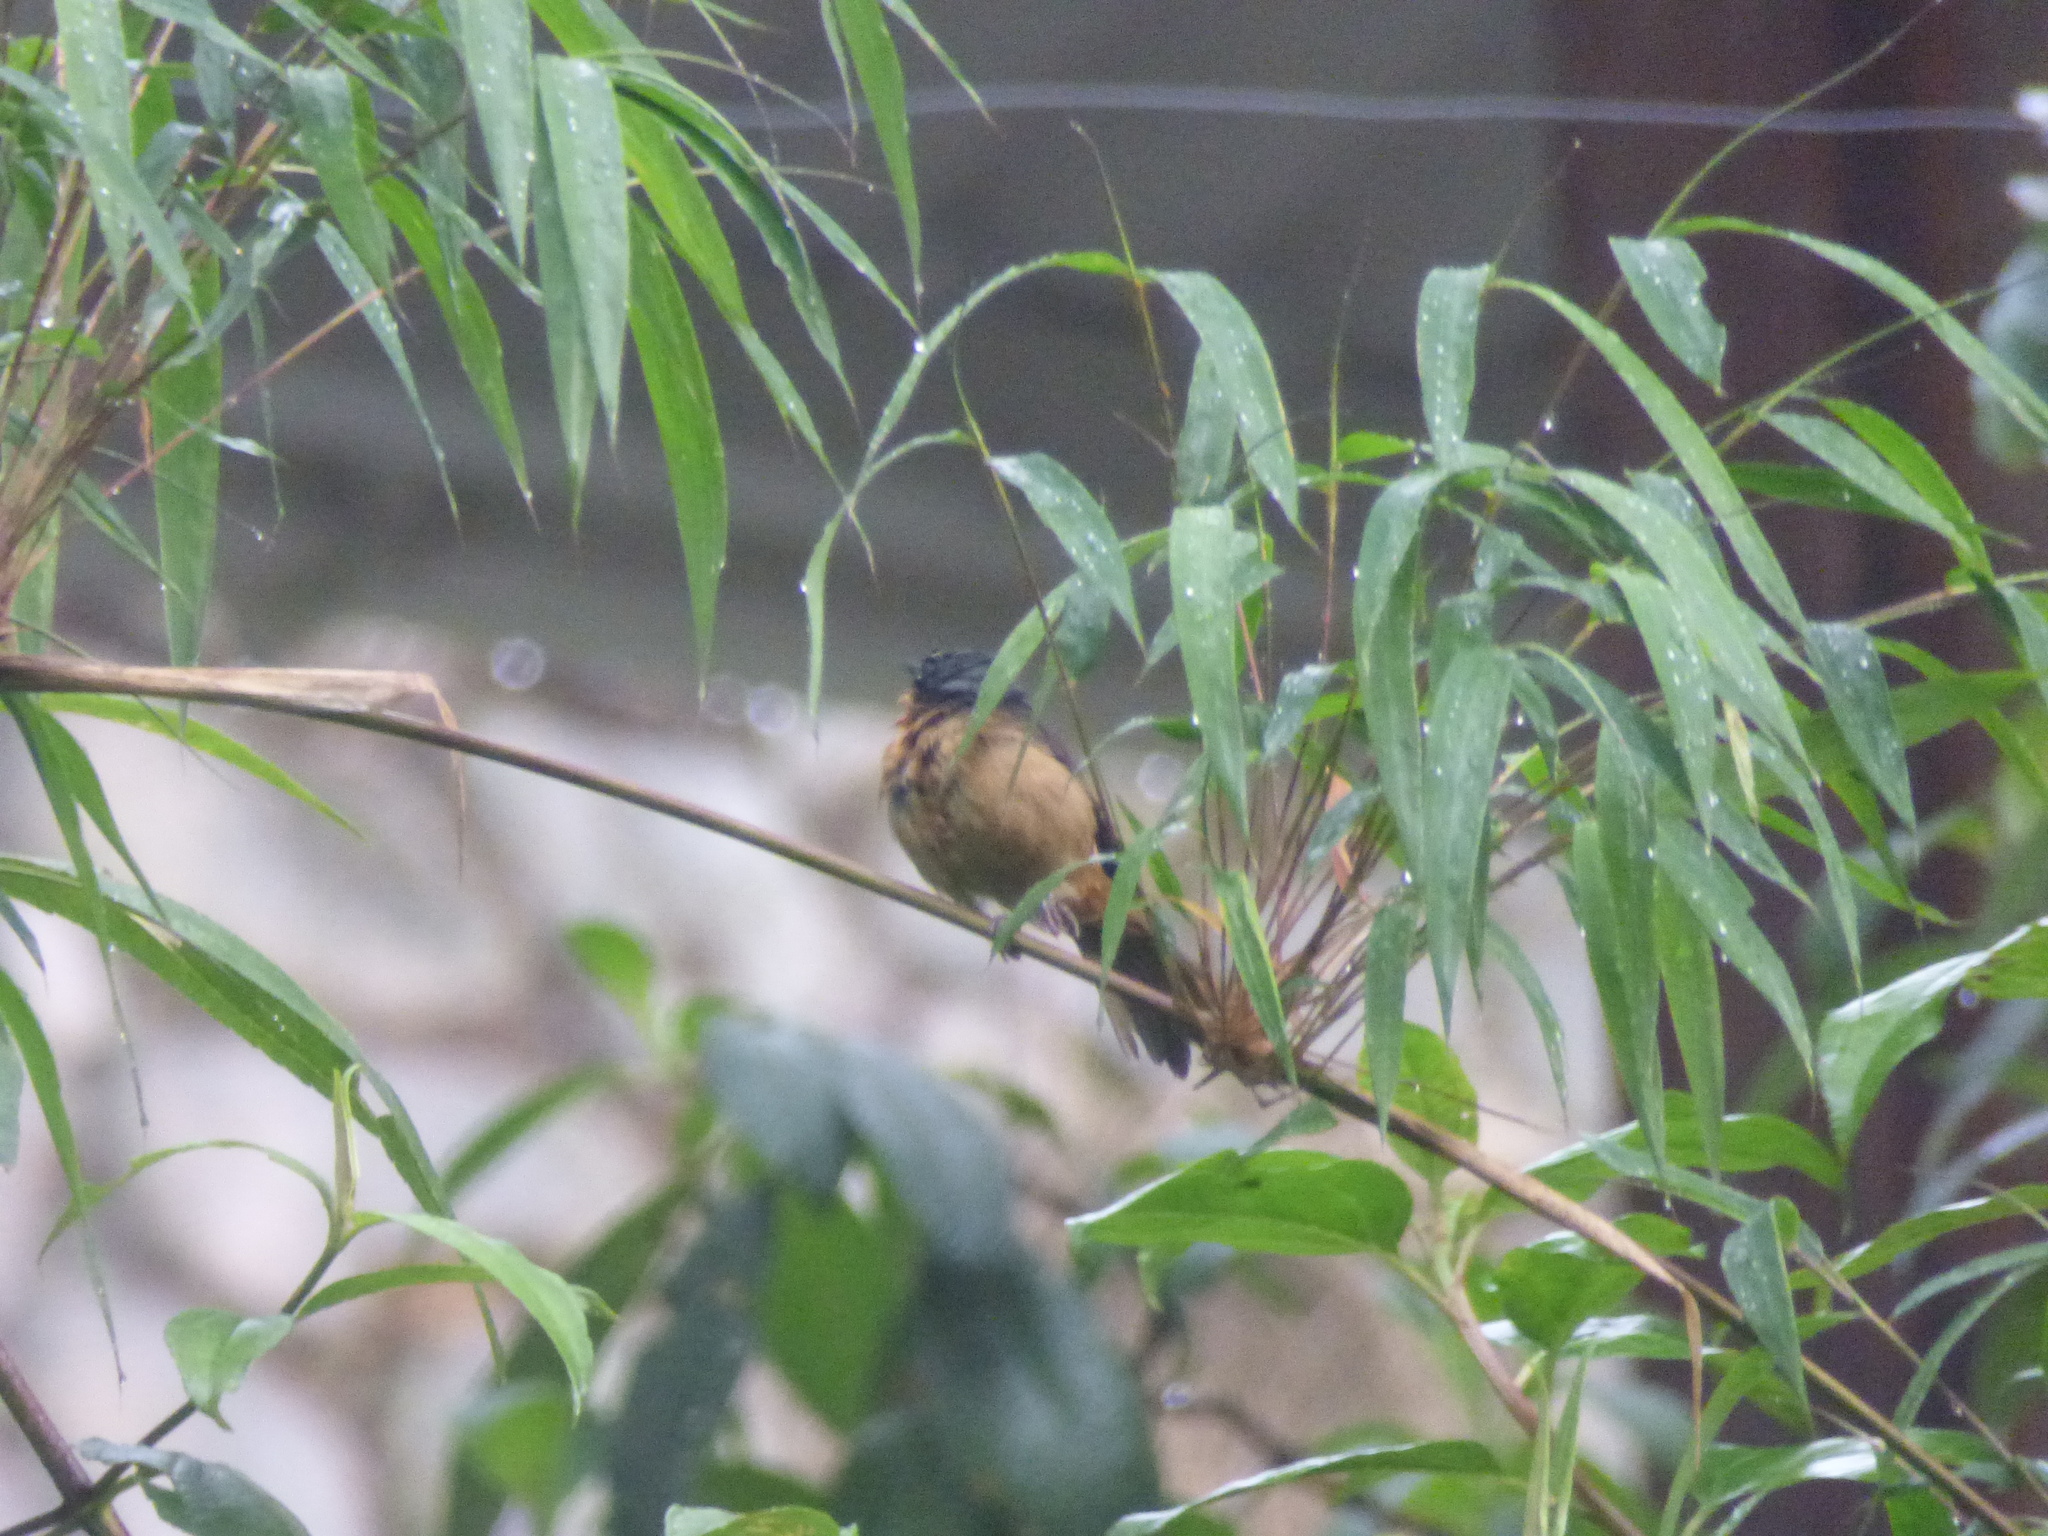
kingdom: Animalia
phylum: Chordata
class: Aves
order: Passeriformes
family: Thraupidae
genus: Sphenopsis
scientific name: Sphenopsis melanotis
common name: Black-eared hemispingus
